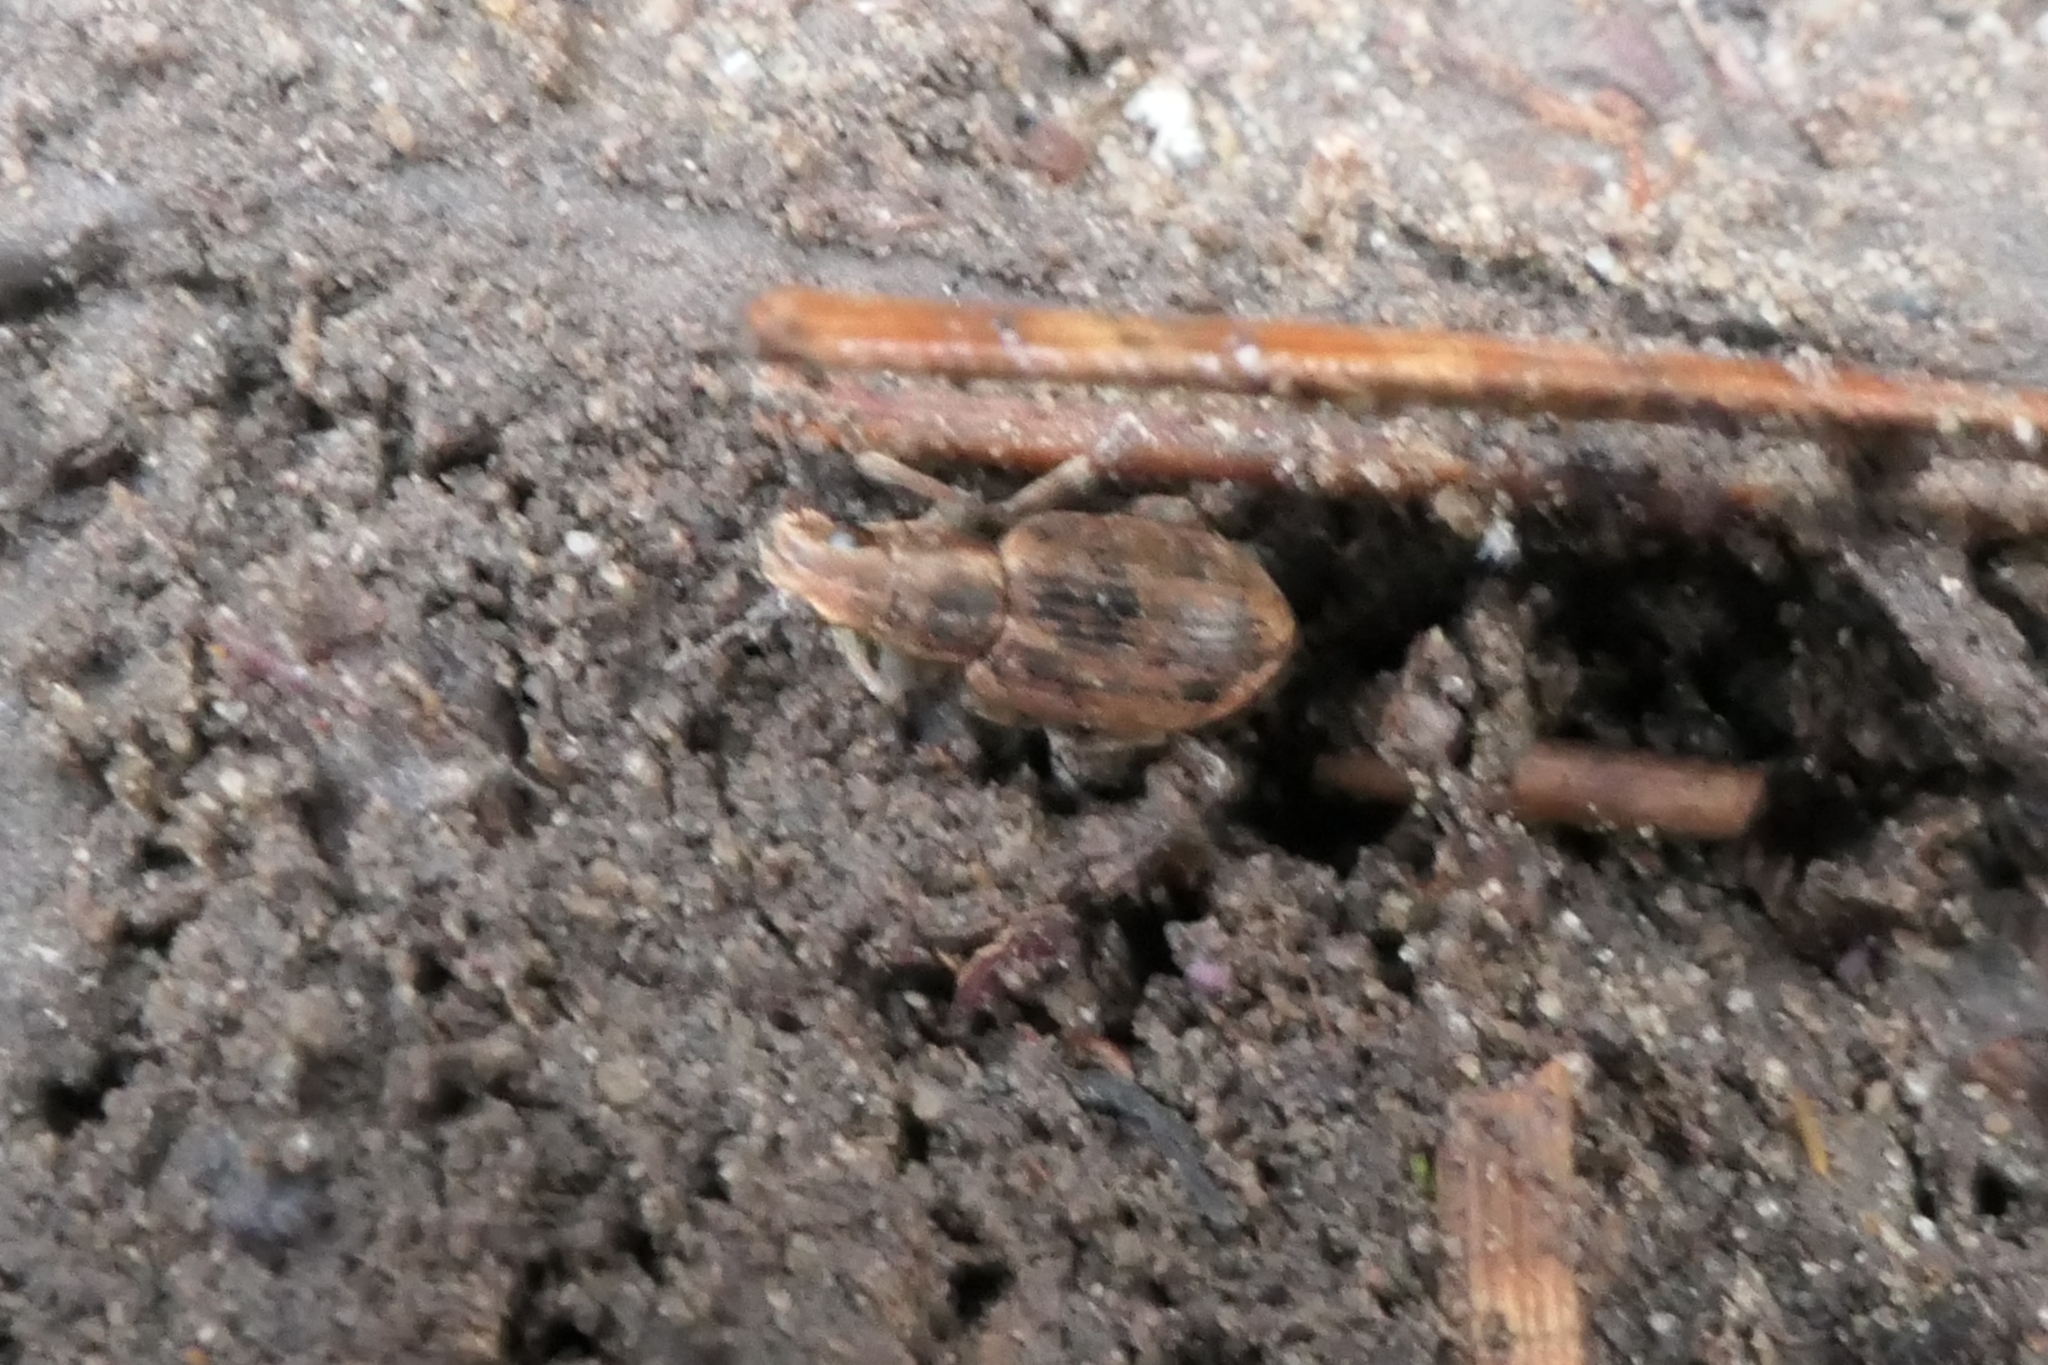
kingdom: Animalia
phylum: Arthropoda
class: Insecta
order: Coleoptera
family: Curculionidae
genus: Sitona
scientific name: Sitona obsoletus
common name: Weevil
